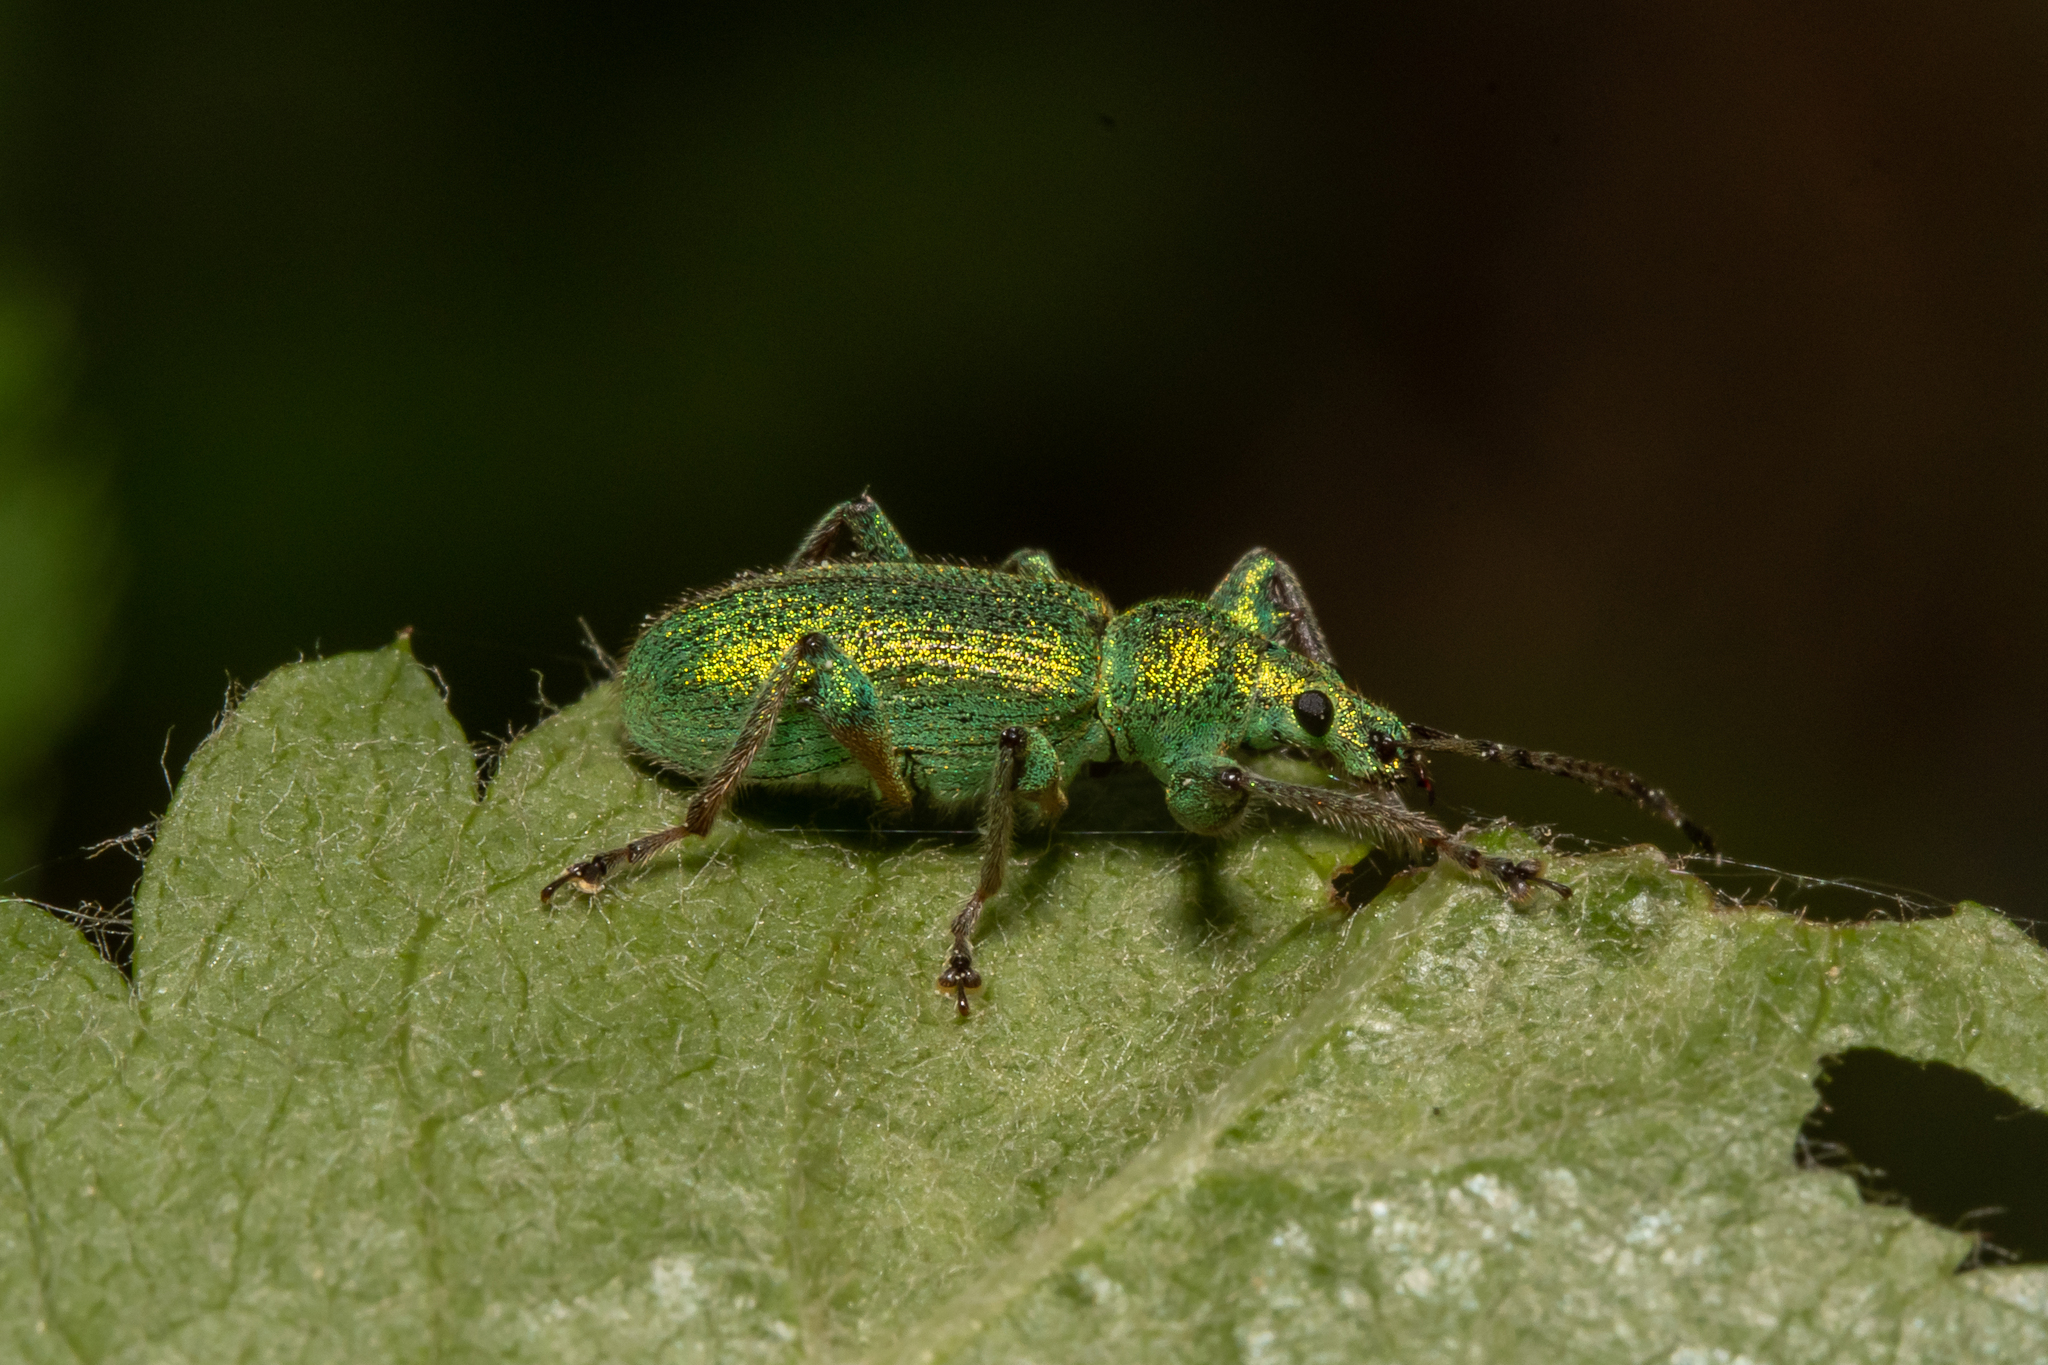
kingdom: Animalia
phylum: Arthropoda
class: Insecta
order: Coleoptera
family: Curculionidae
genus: Phyllobius
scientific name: Phyllobius arborator
